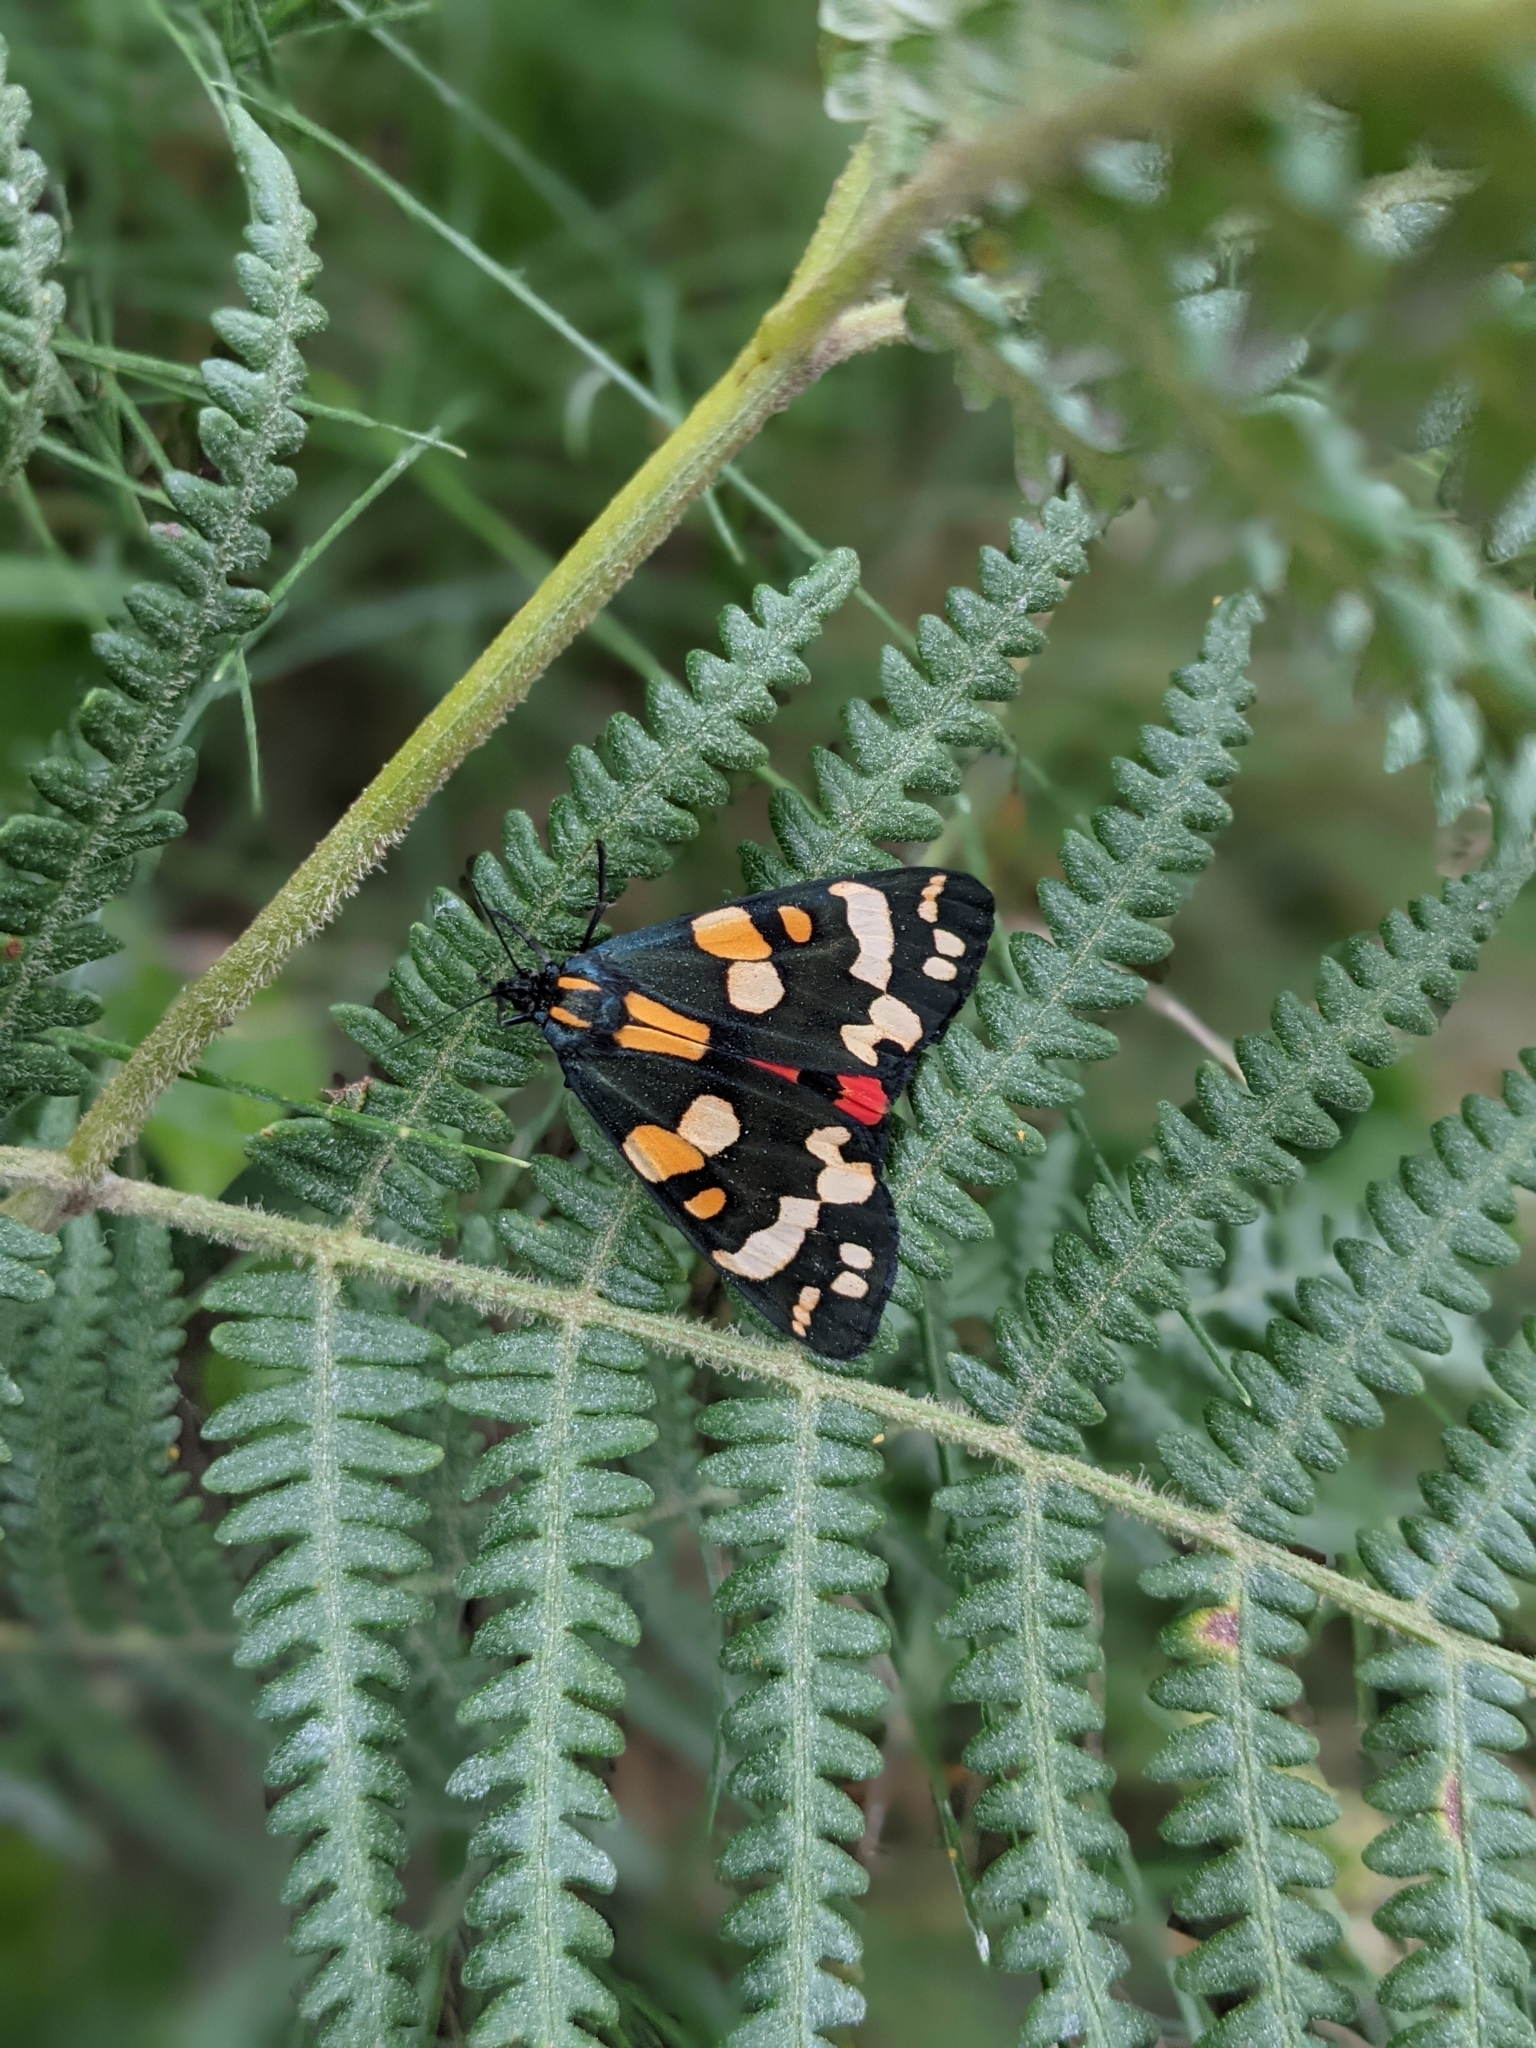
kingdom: Animalia
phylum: Arthropoda
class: Insecta
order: Lepidoptera
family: Erebidae
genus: Callimorpha
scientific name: Callimorpha dominula
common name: Scarlet tiger
